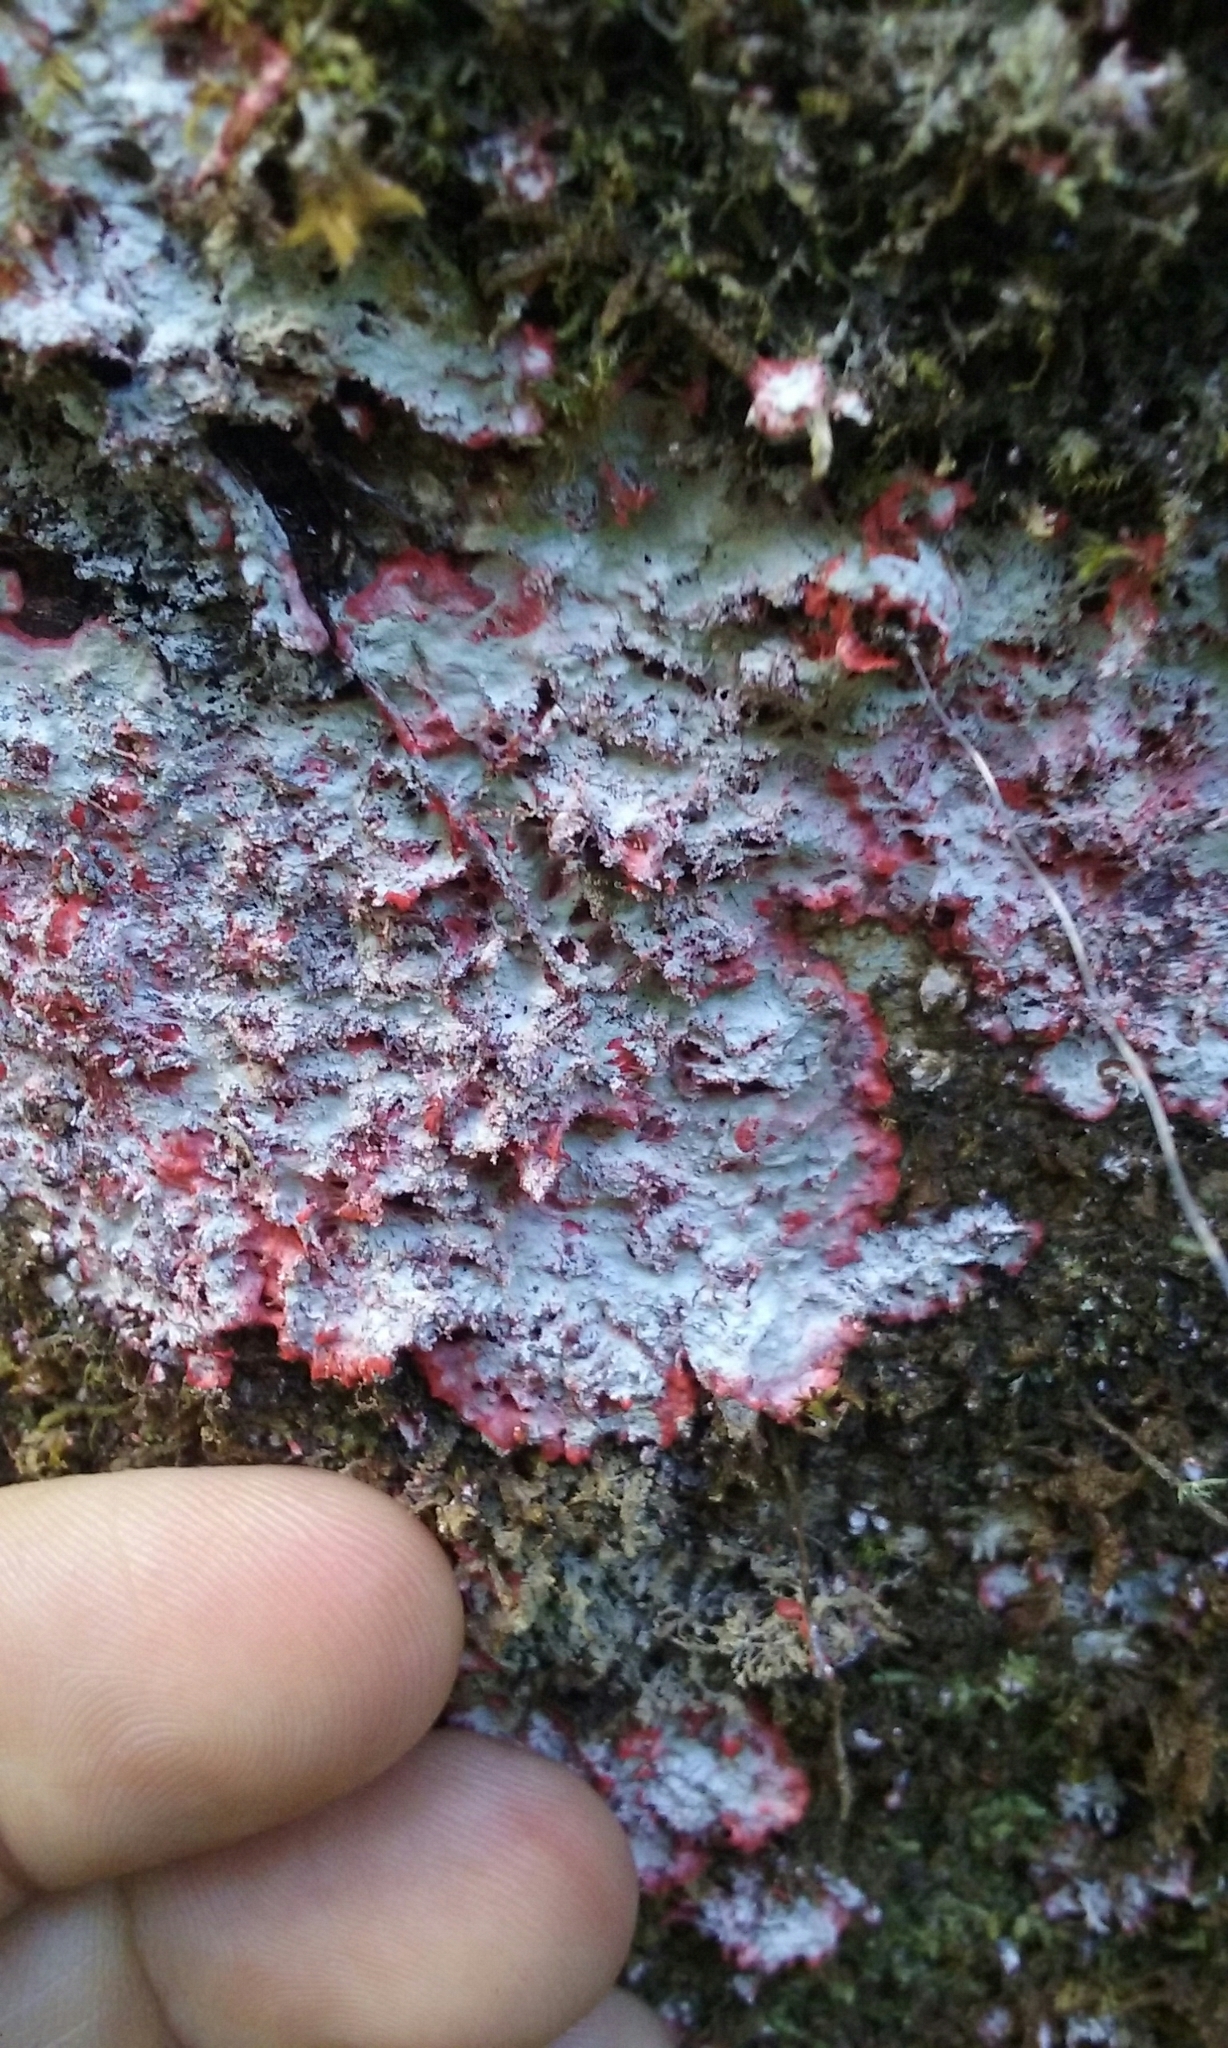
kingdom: Fungi
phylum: Ascomycota
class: Arthoniomycetes
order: Arthoniales
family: Arthoniaceae
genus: Herpothallon
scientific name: Herpothallon rubrocinctum
